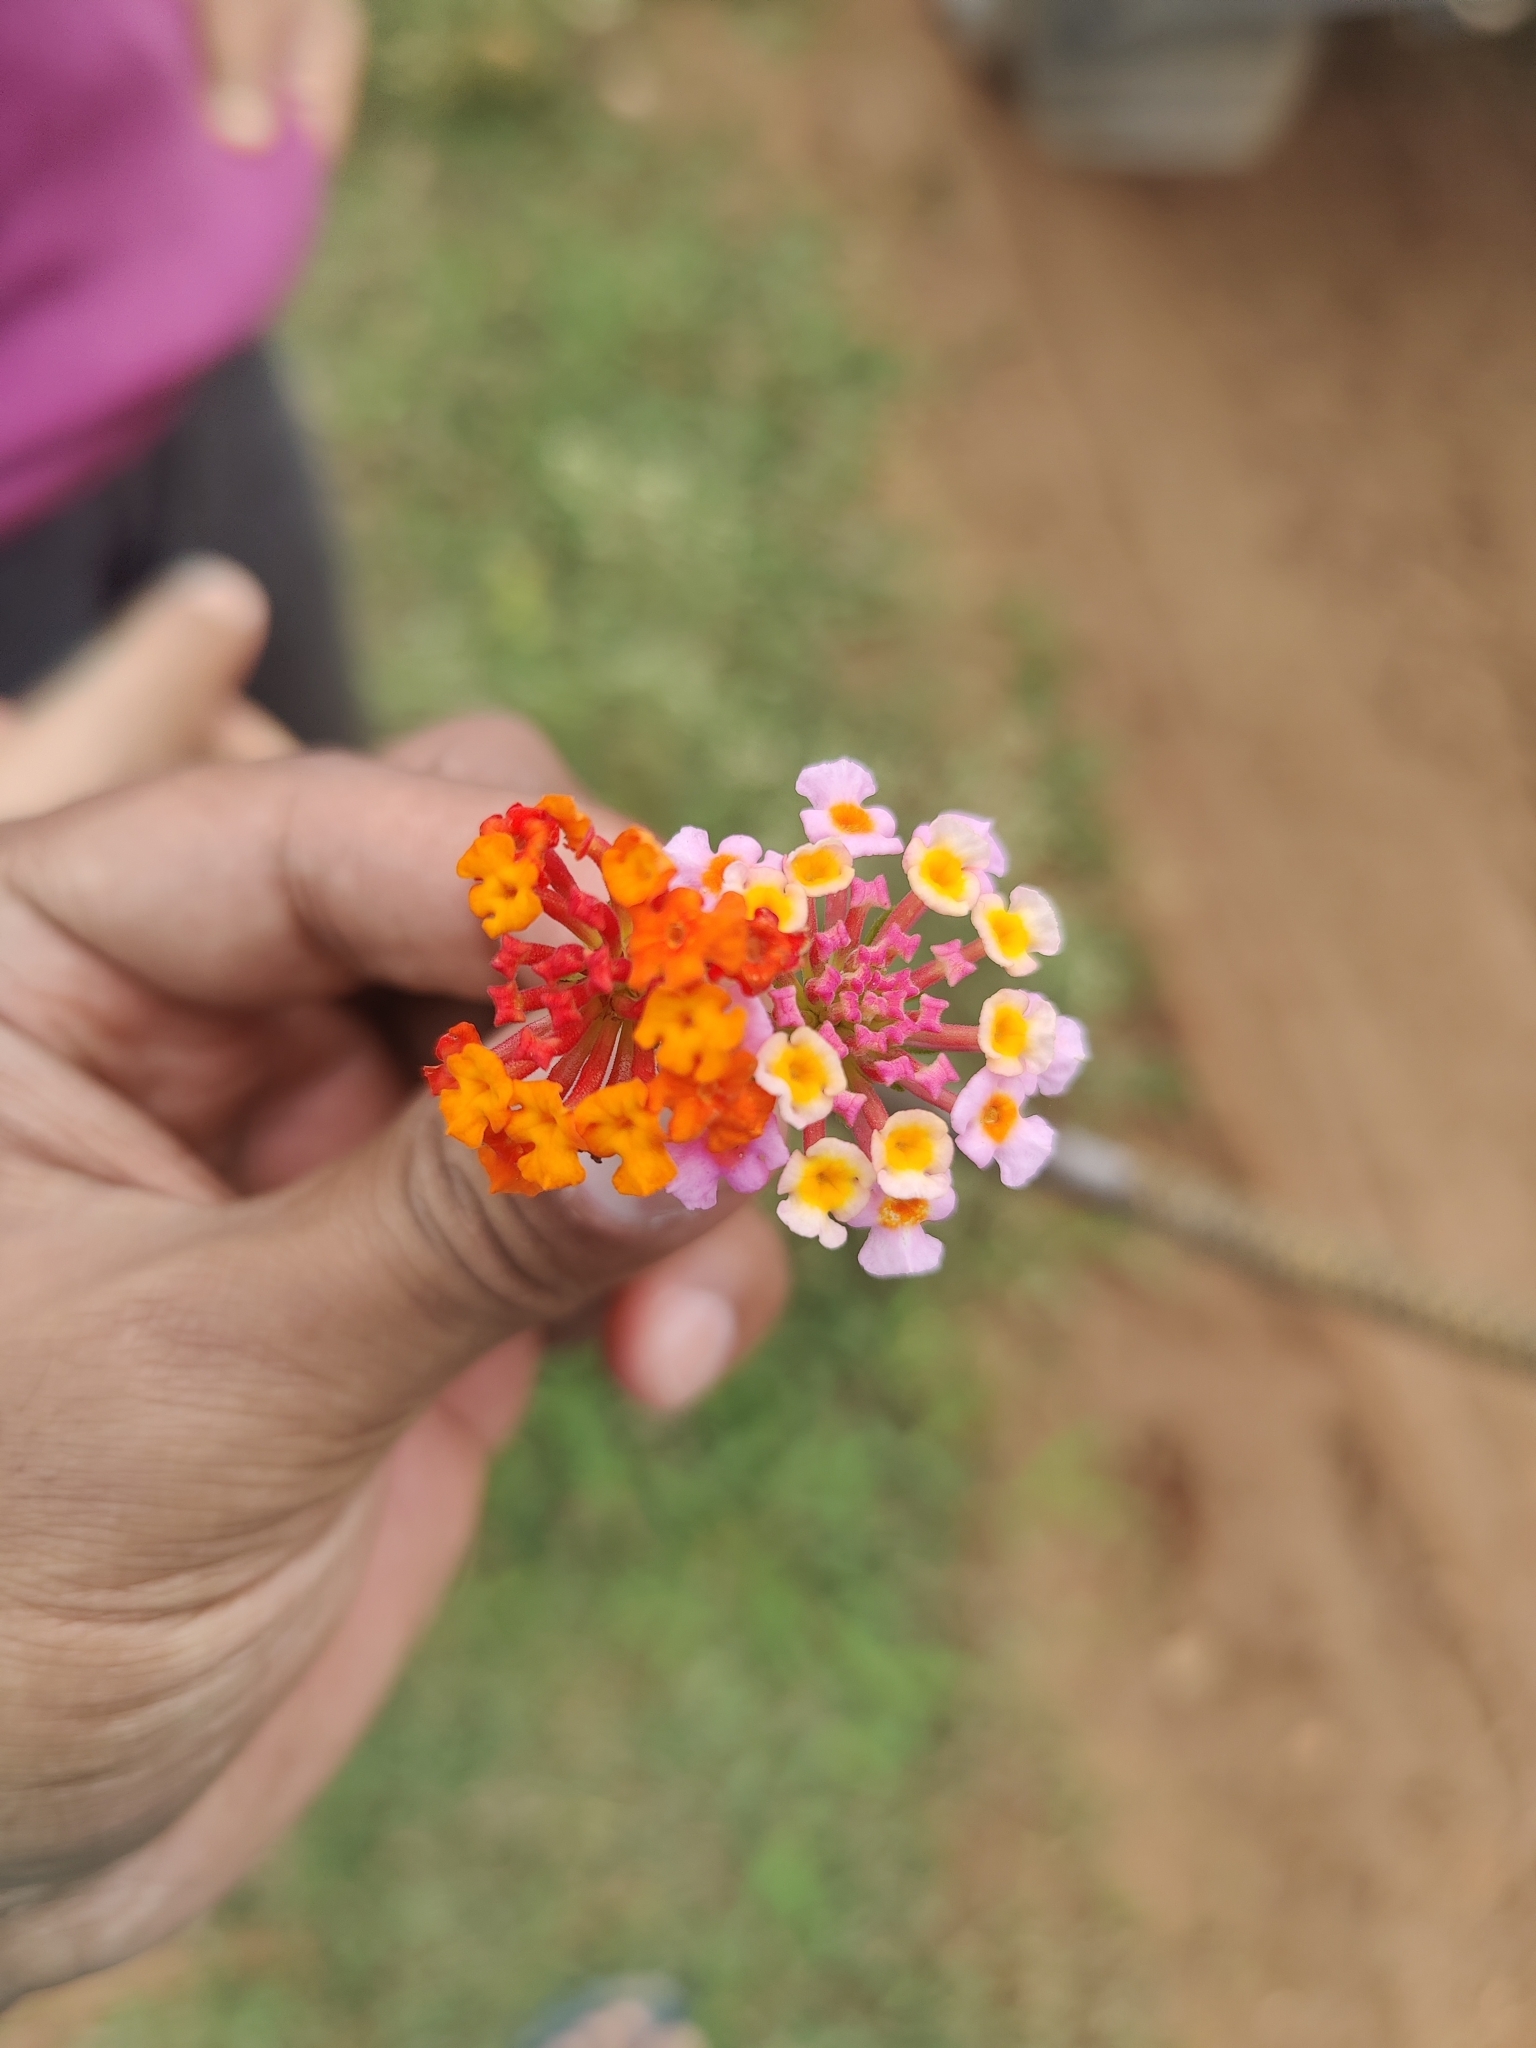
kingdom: Plantae
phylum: Tracheophyta
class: Magnoliopsida
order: Lamiales
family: Verbenaceae
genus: Lantana
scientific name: Lantana camara
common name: Lantana
